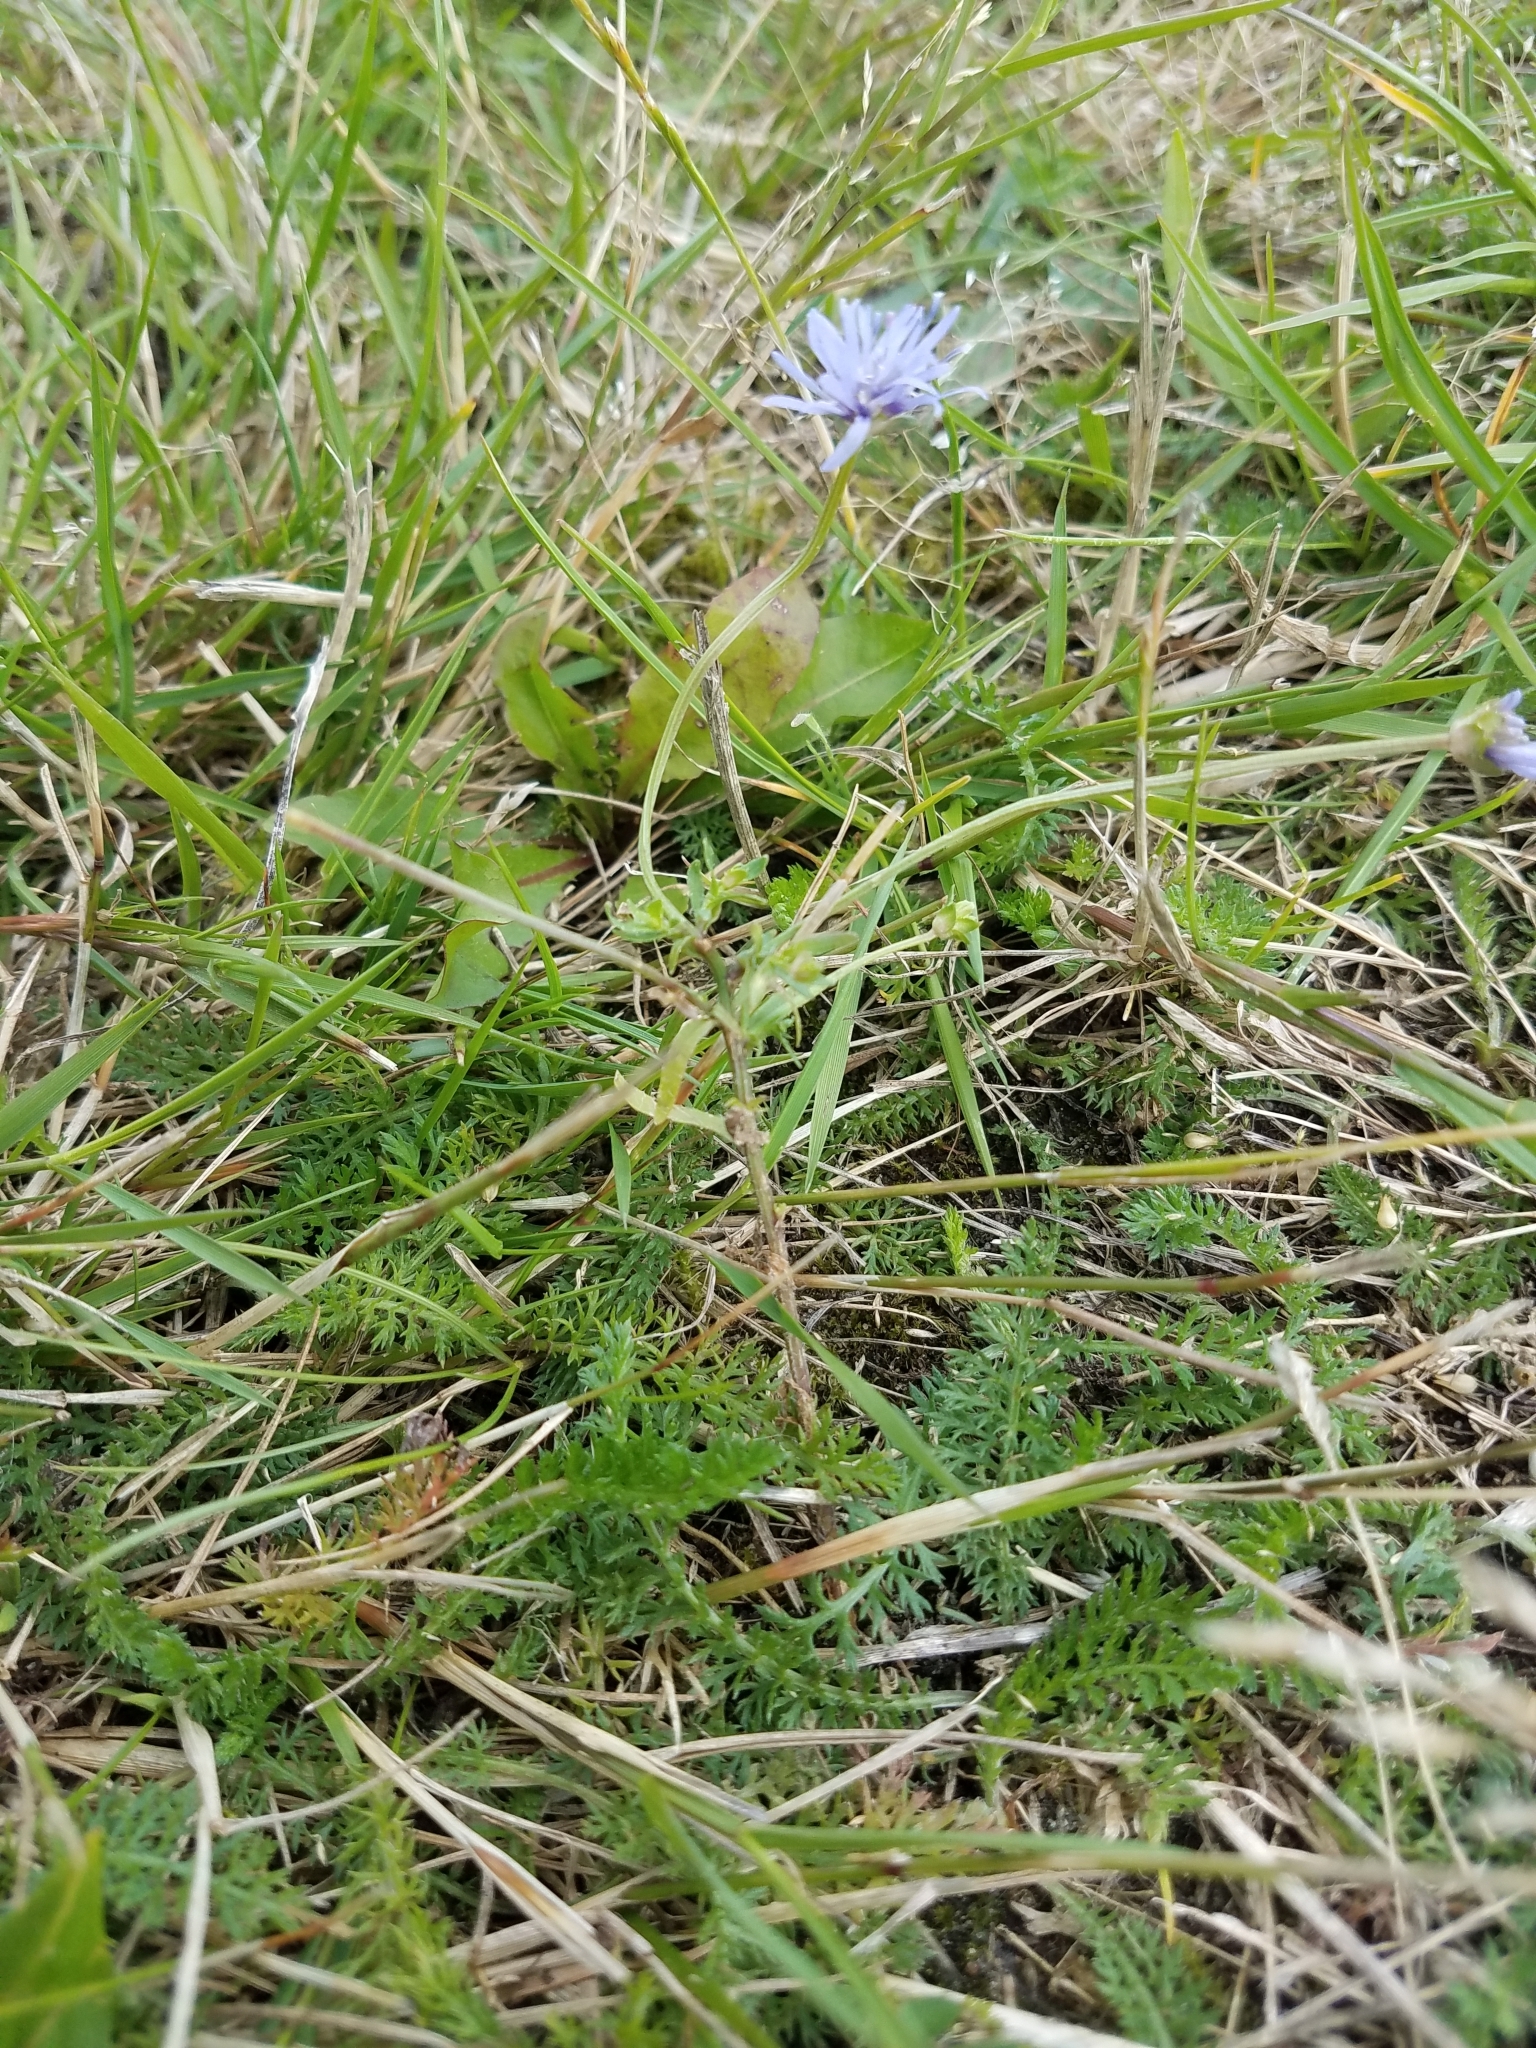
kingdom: Plantae
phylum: Tracheophyta
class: Magnoliopsida
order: Asterales
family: Campanulaceae
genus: Jasione
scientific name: Jasione montana
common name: Sheep's-bit
